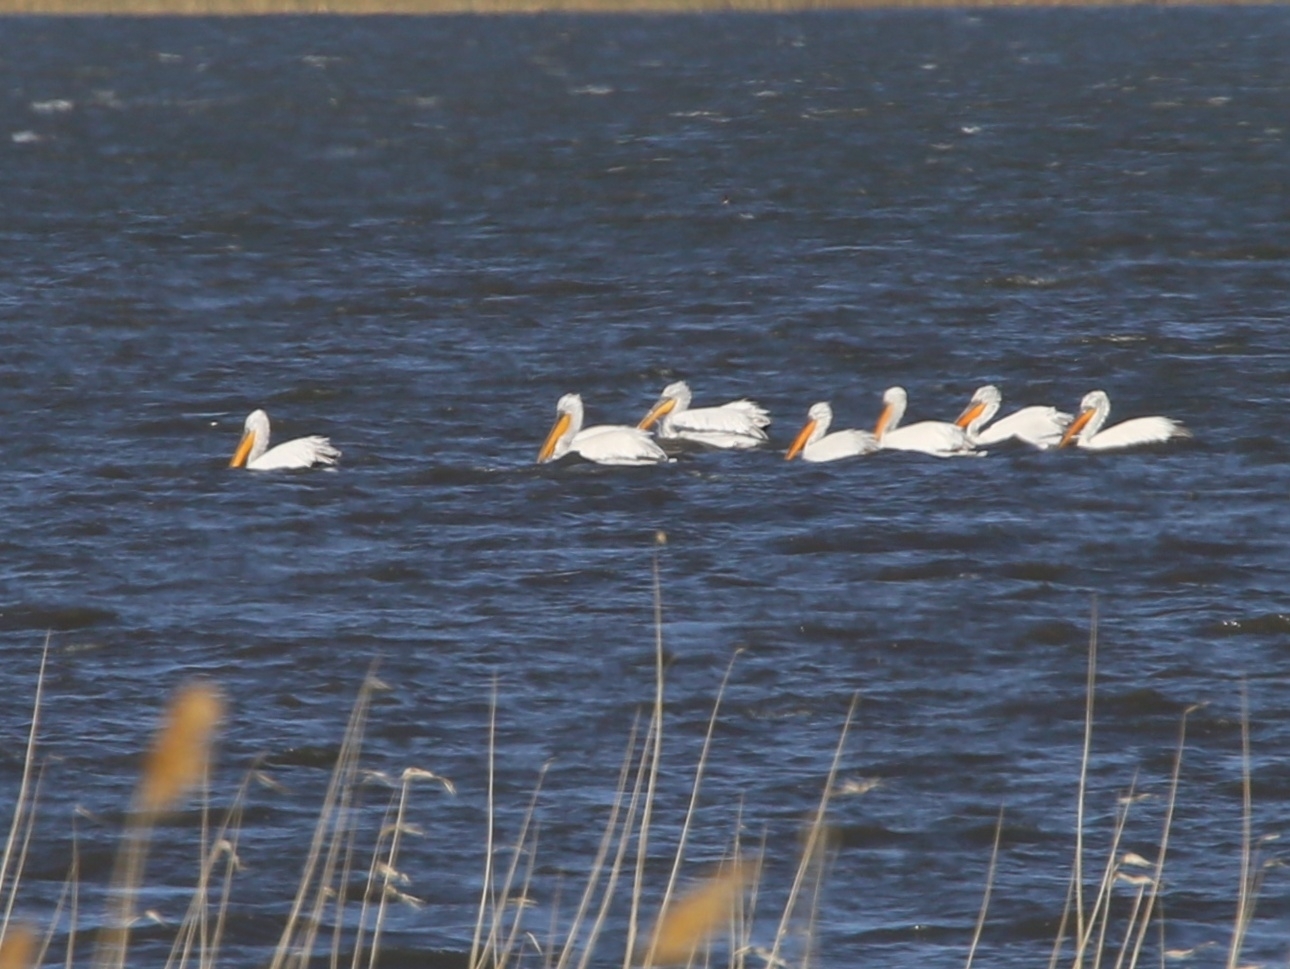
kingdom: Animalia
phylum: Chordata
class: Aves
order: Pelecaniformes
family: Pelecanidae
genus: Pelecanus
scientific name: Pelecanus crispus
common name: Dalmatian pelican
